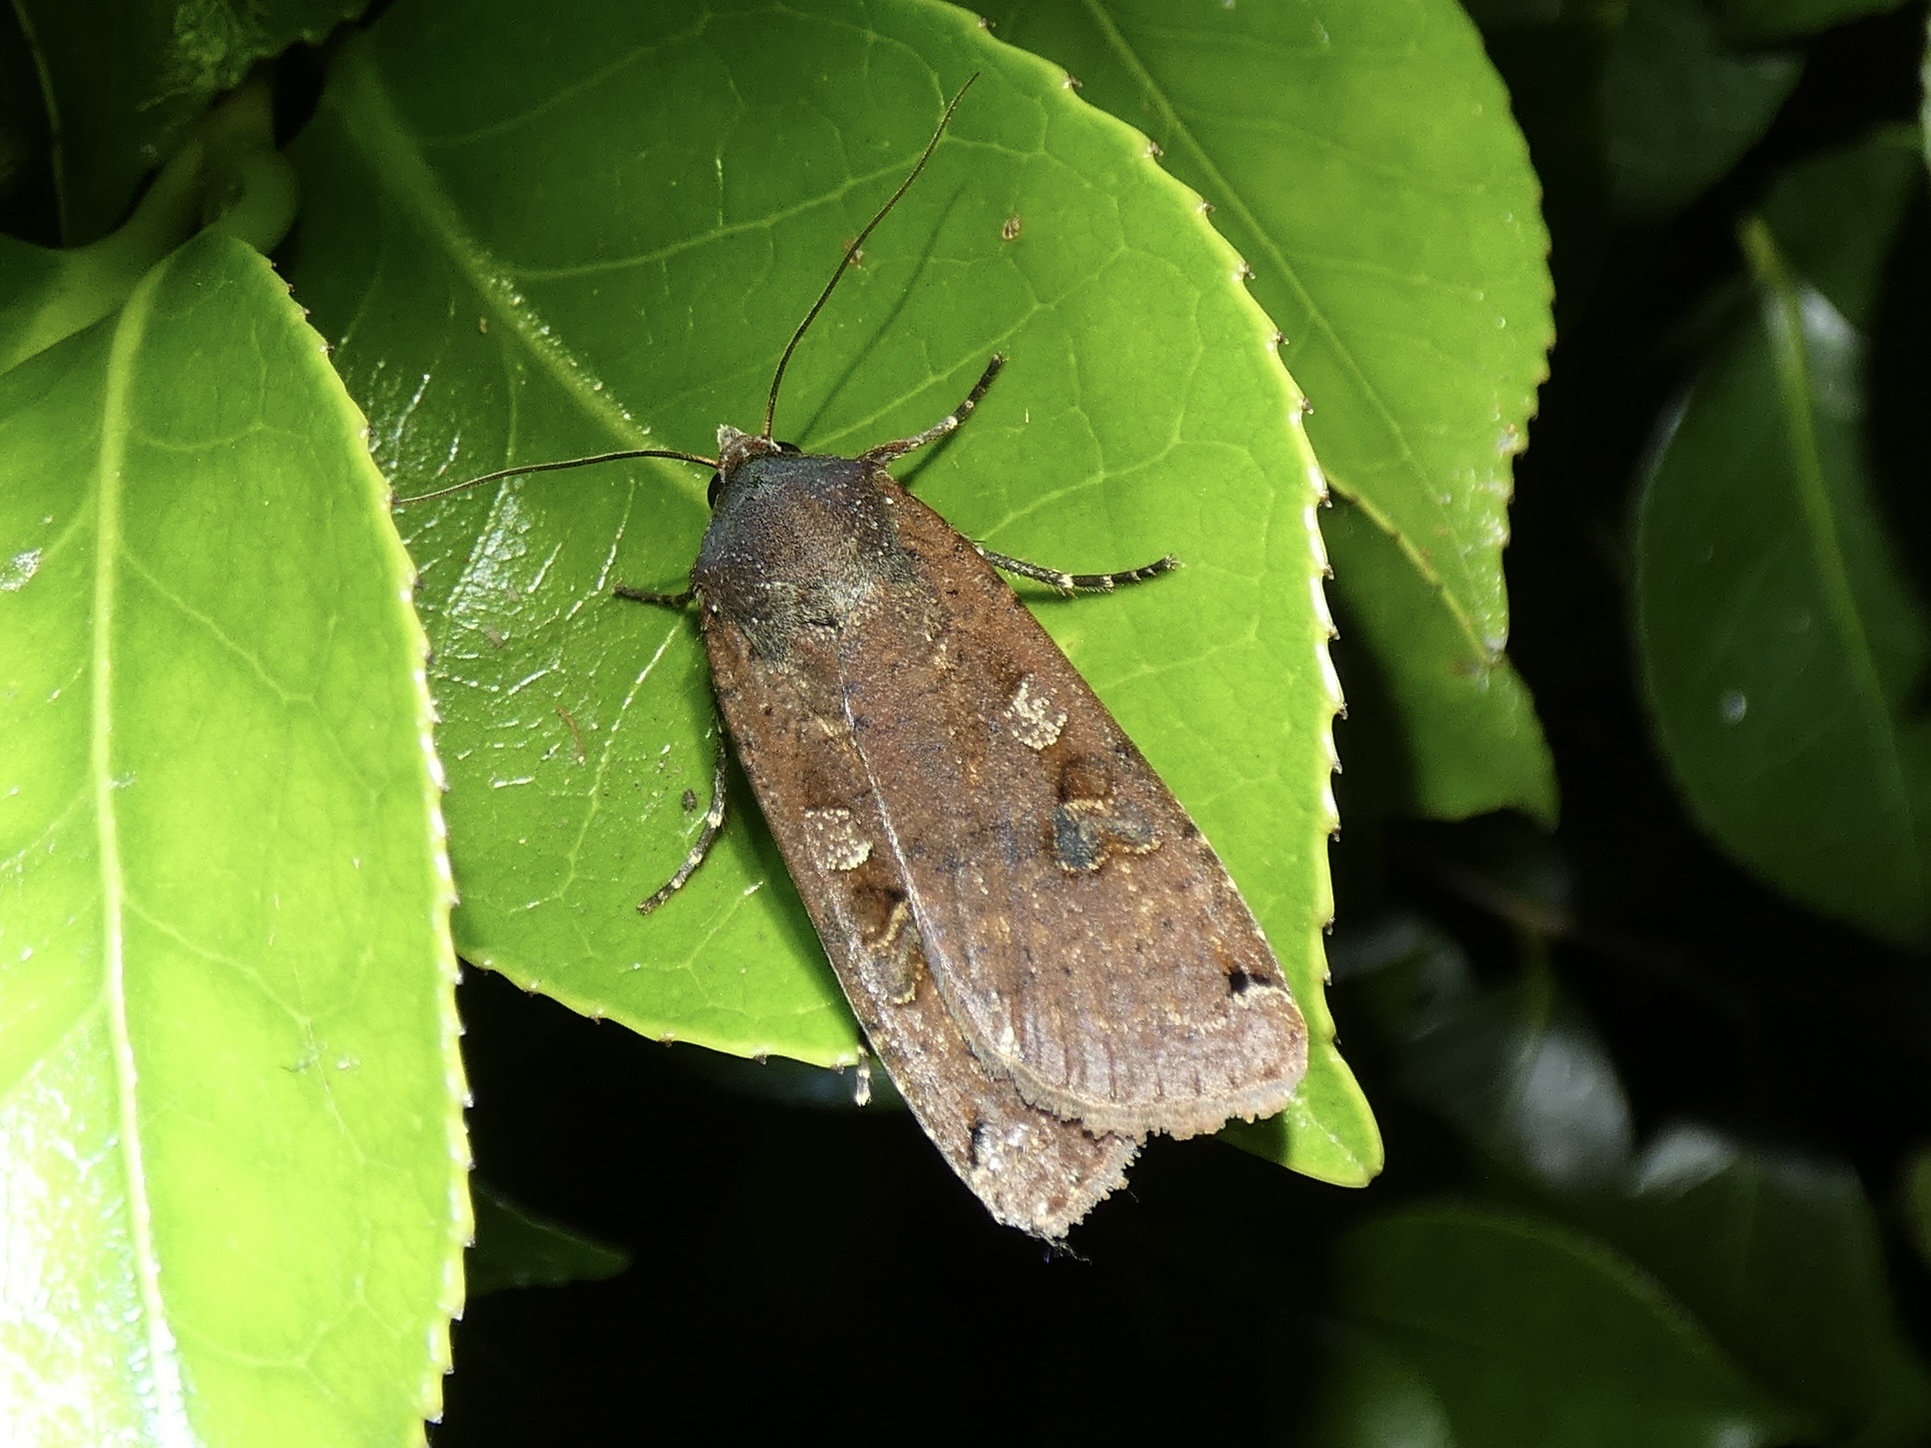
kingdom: Animalia
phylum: Arthropoda
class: Insecta
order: Lepidoptera
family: Noctuidae
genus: Noctua
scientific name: Noctua pronuba
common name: Large yellow underwing
